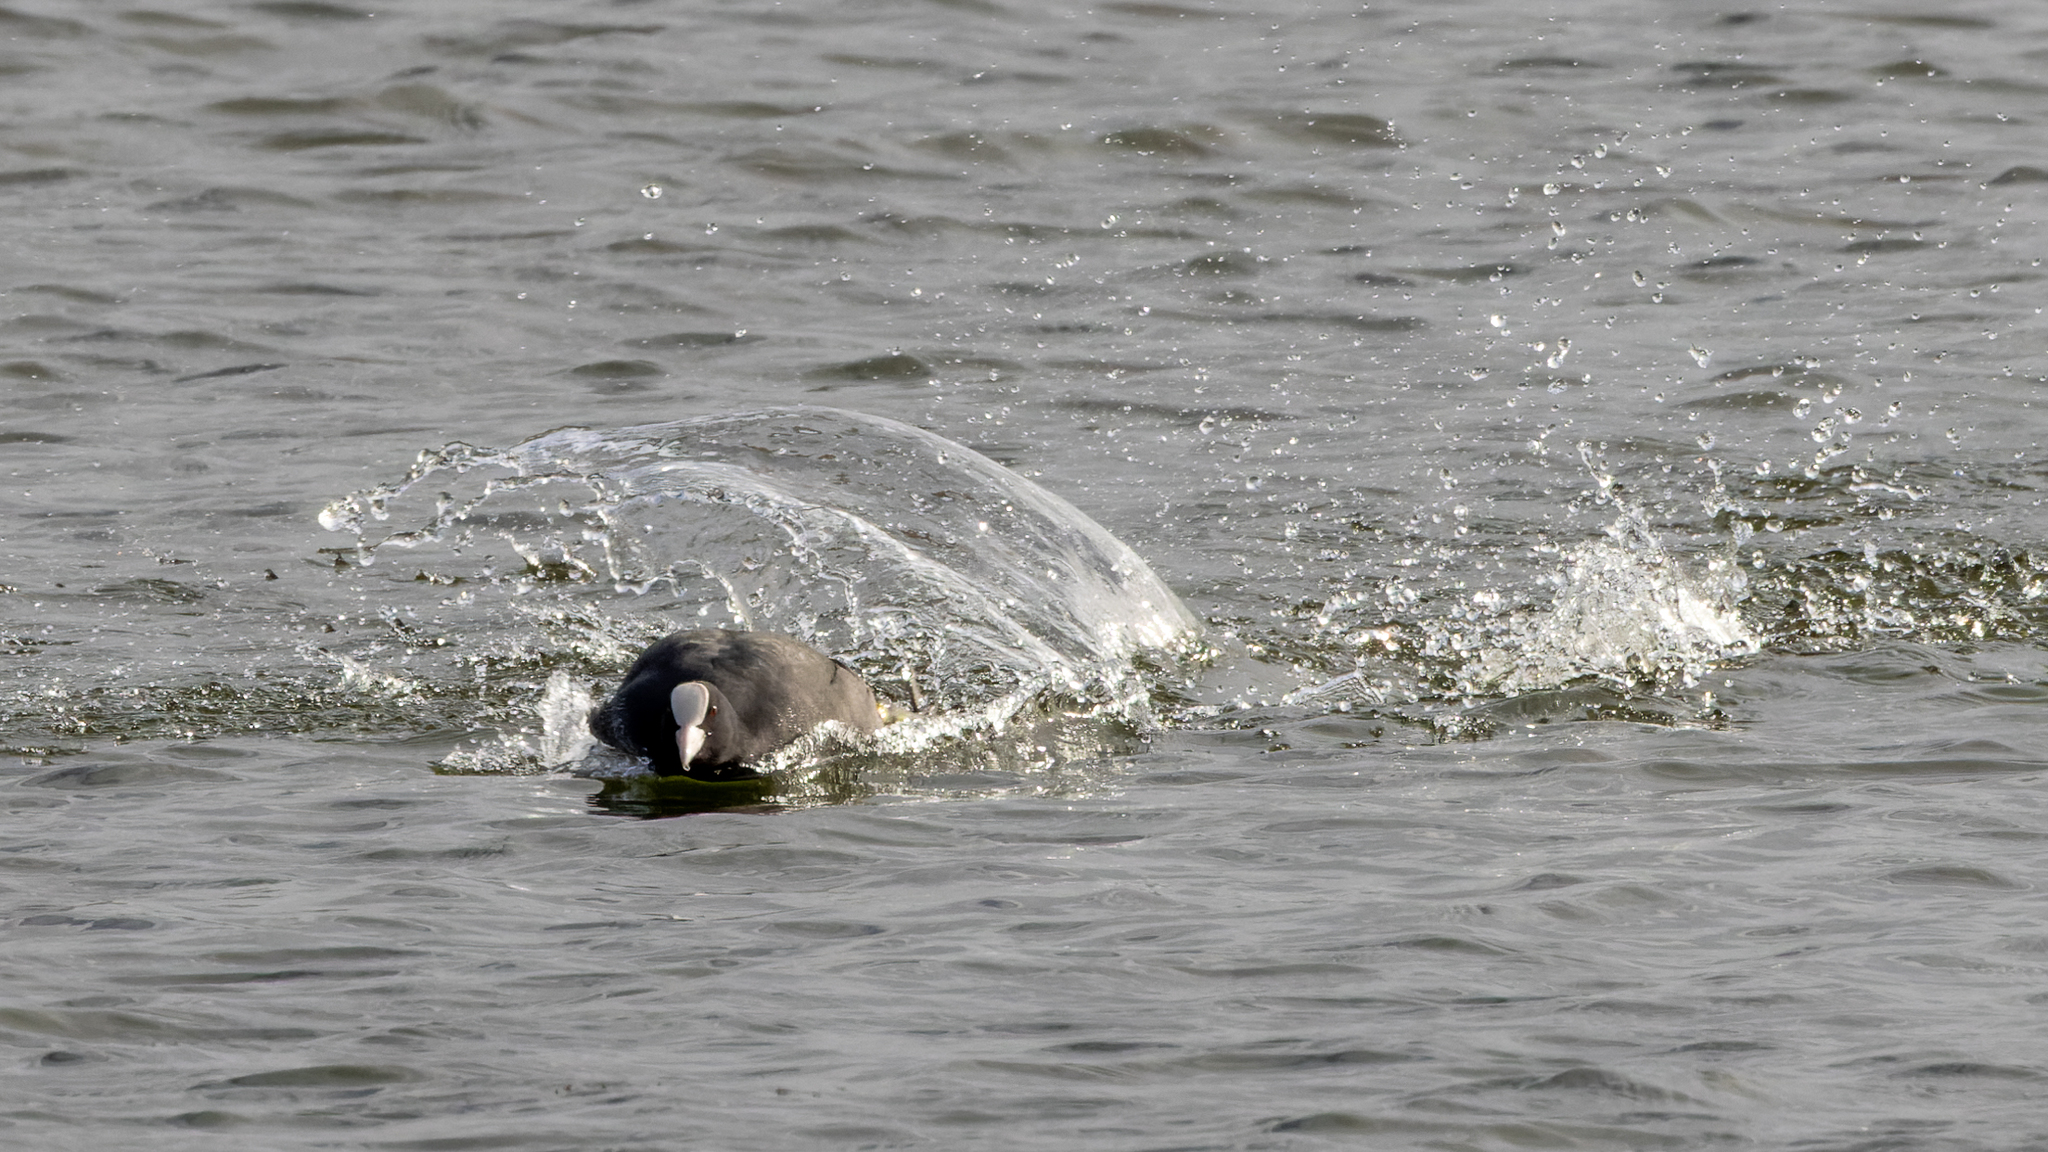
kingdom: Animalia
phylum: Chordata
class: Aves
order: Gruiformes
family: Rallidae
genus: Fulica
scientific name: Fulica atra
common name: Eurasian coot
